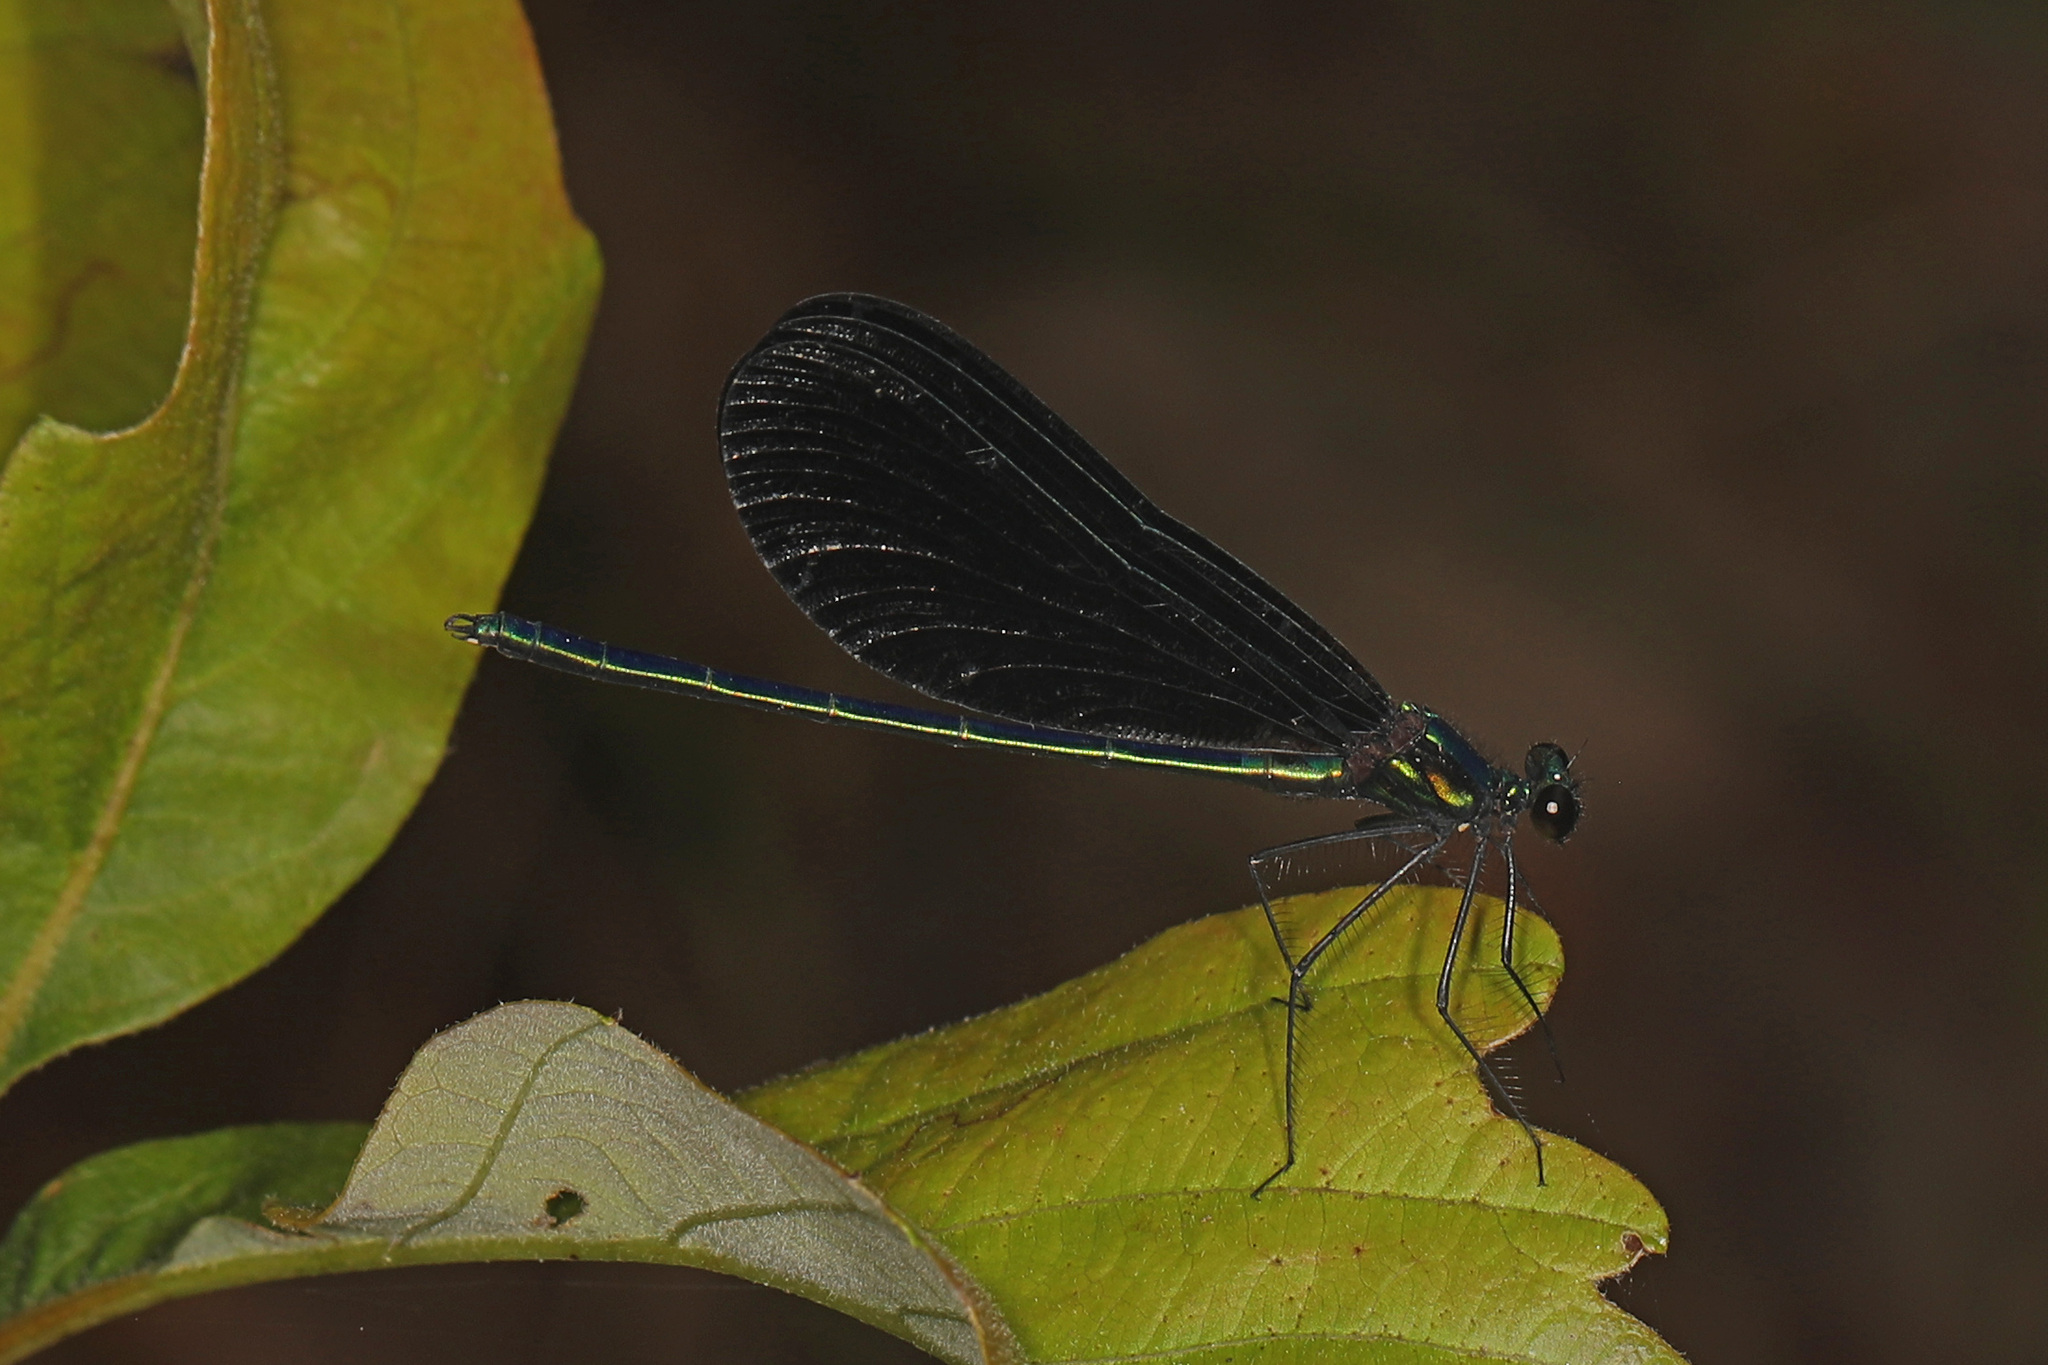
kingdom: Animalia
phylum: Arthropoda
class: Insecta
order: Odonata
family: Calopterygidae
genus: Calopteryx
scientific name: Calopteryx maculata
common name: Ebony jewelwing
